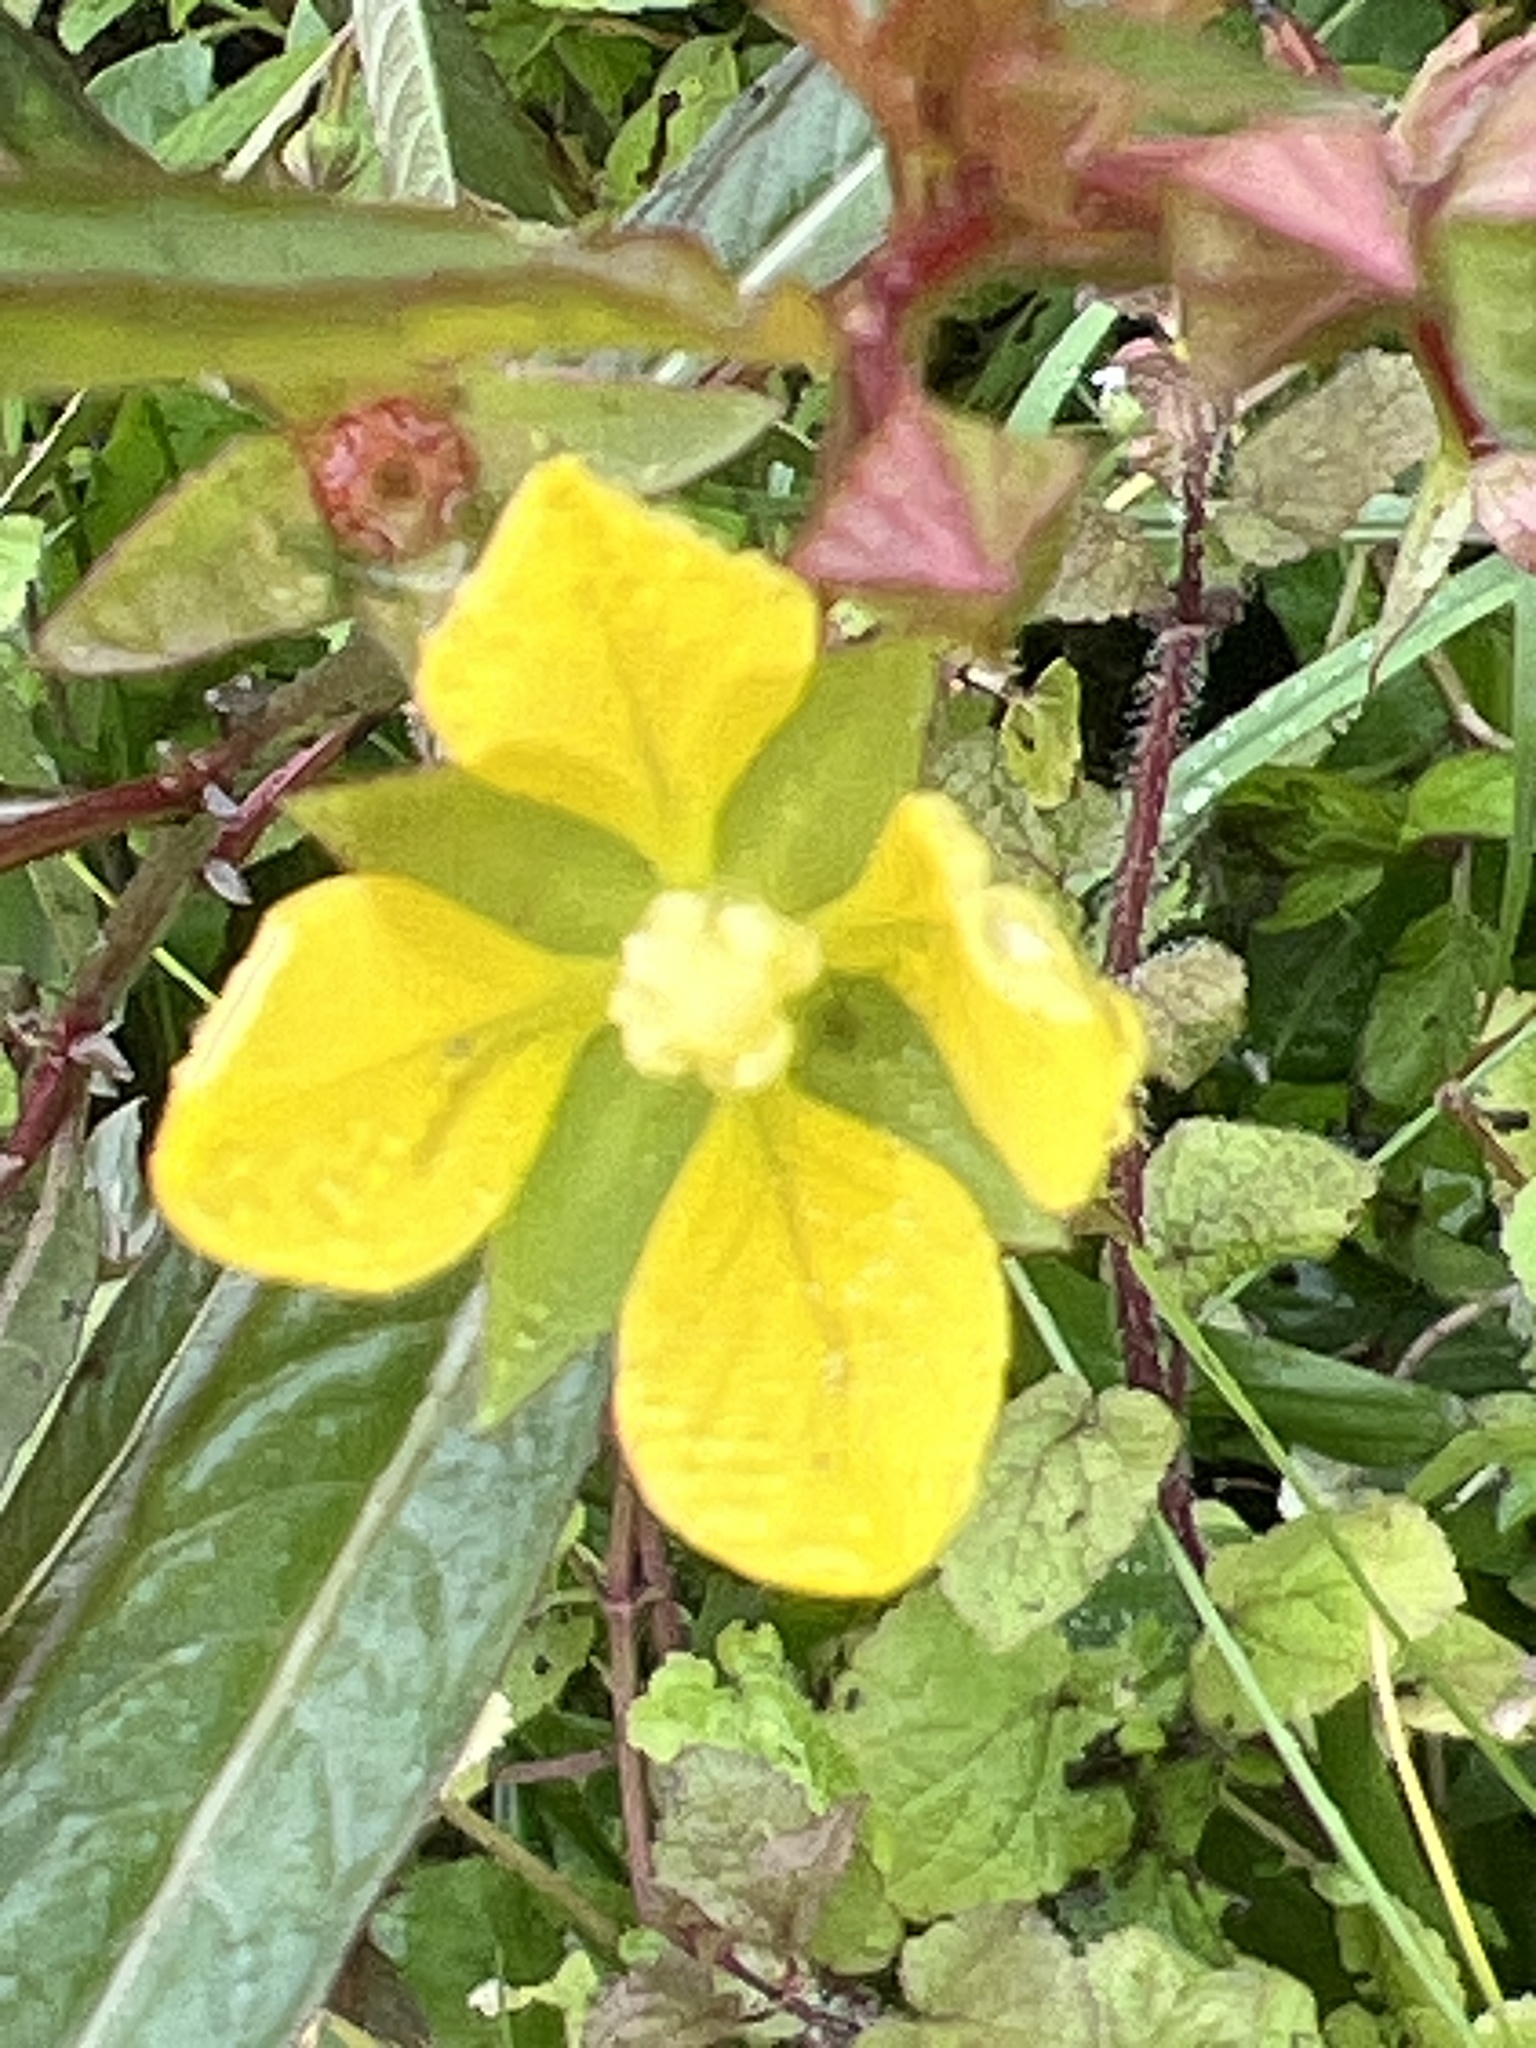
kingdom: Plantae
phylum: Tracheophyta
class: Magnoliopsida
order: Myrtales
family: Onagraceae
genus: Ludwigia
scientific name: Ludwigia erecta
